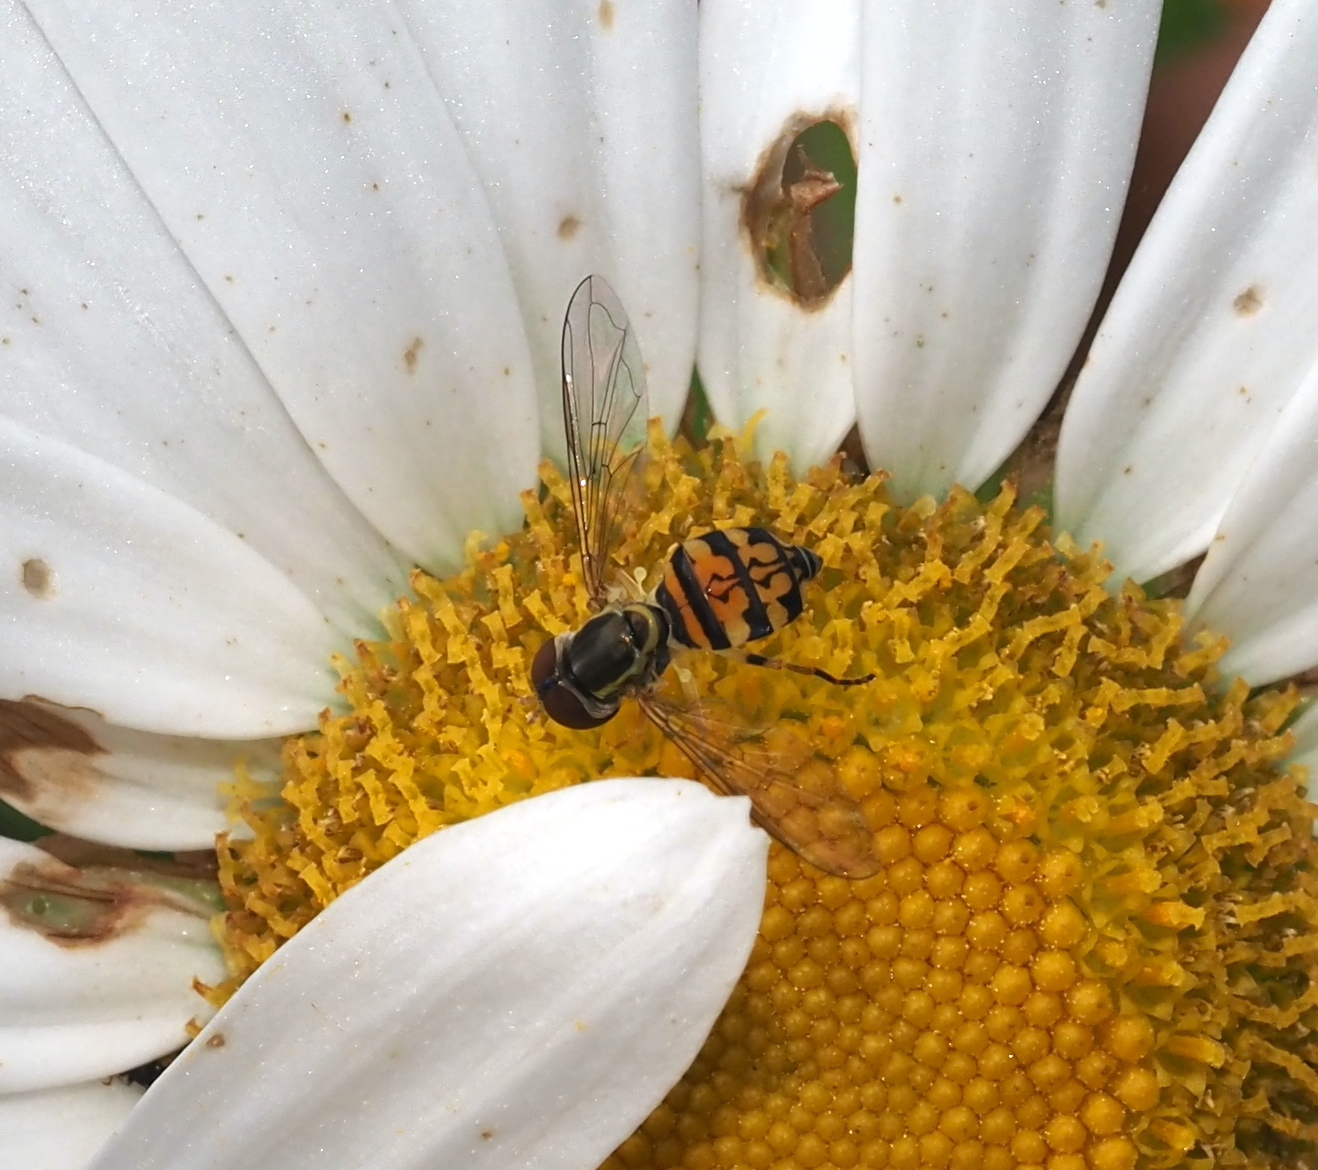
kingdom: Animalia
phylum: Arthropoda
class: Insecta
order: Diptera
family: Syrphidae
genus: Toxomerus
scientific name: Toxomerus geminatus
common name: Eastern calligrapher
